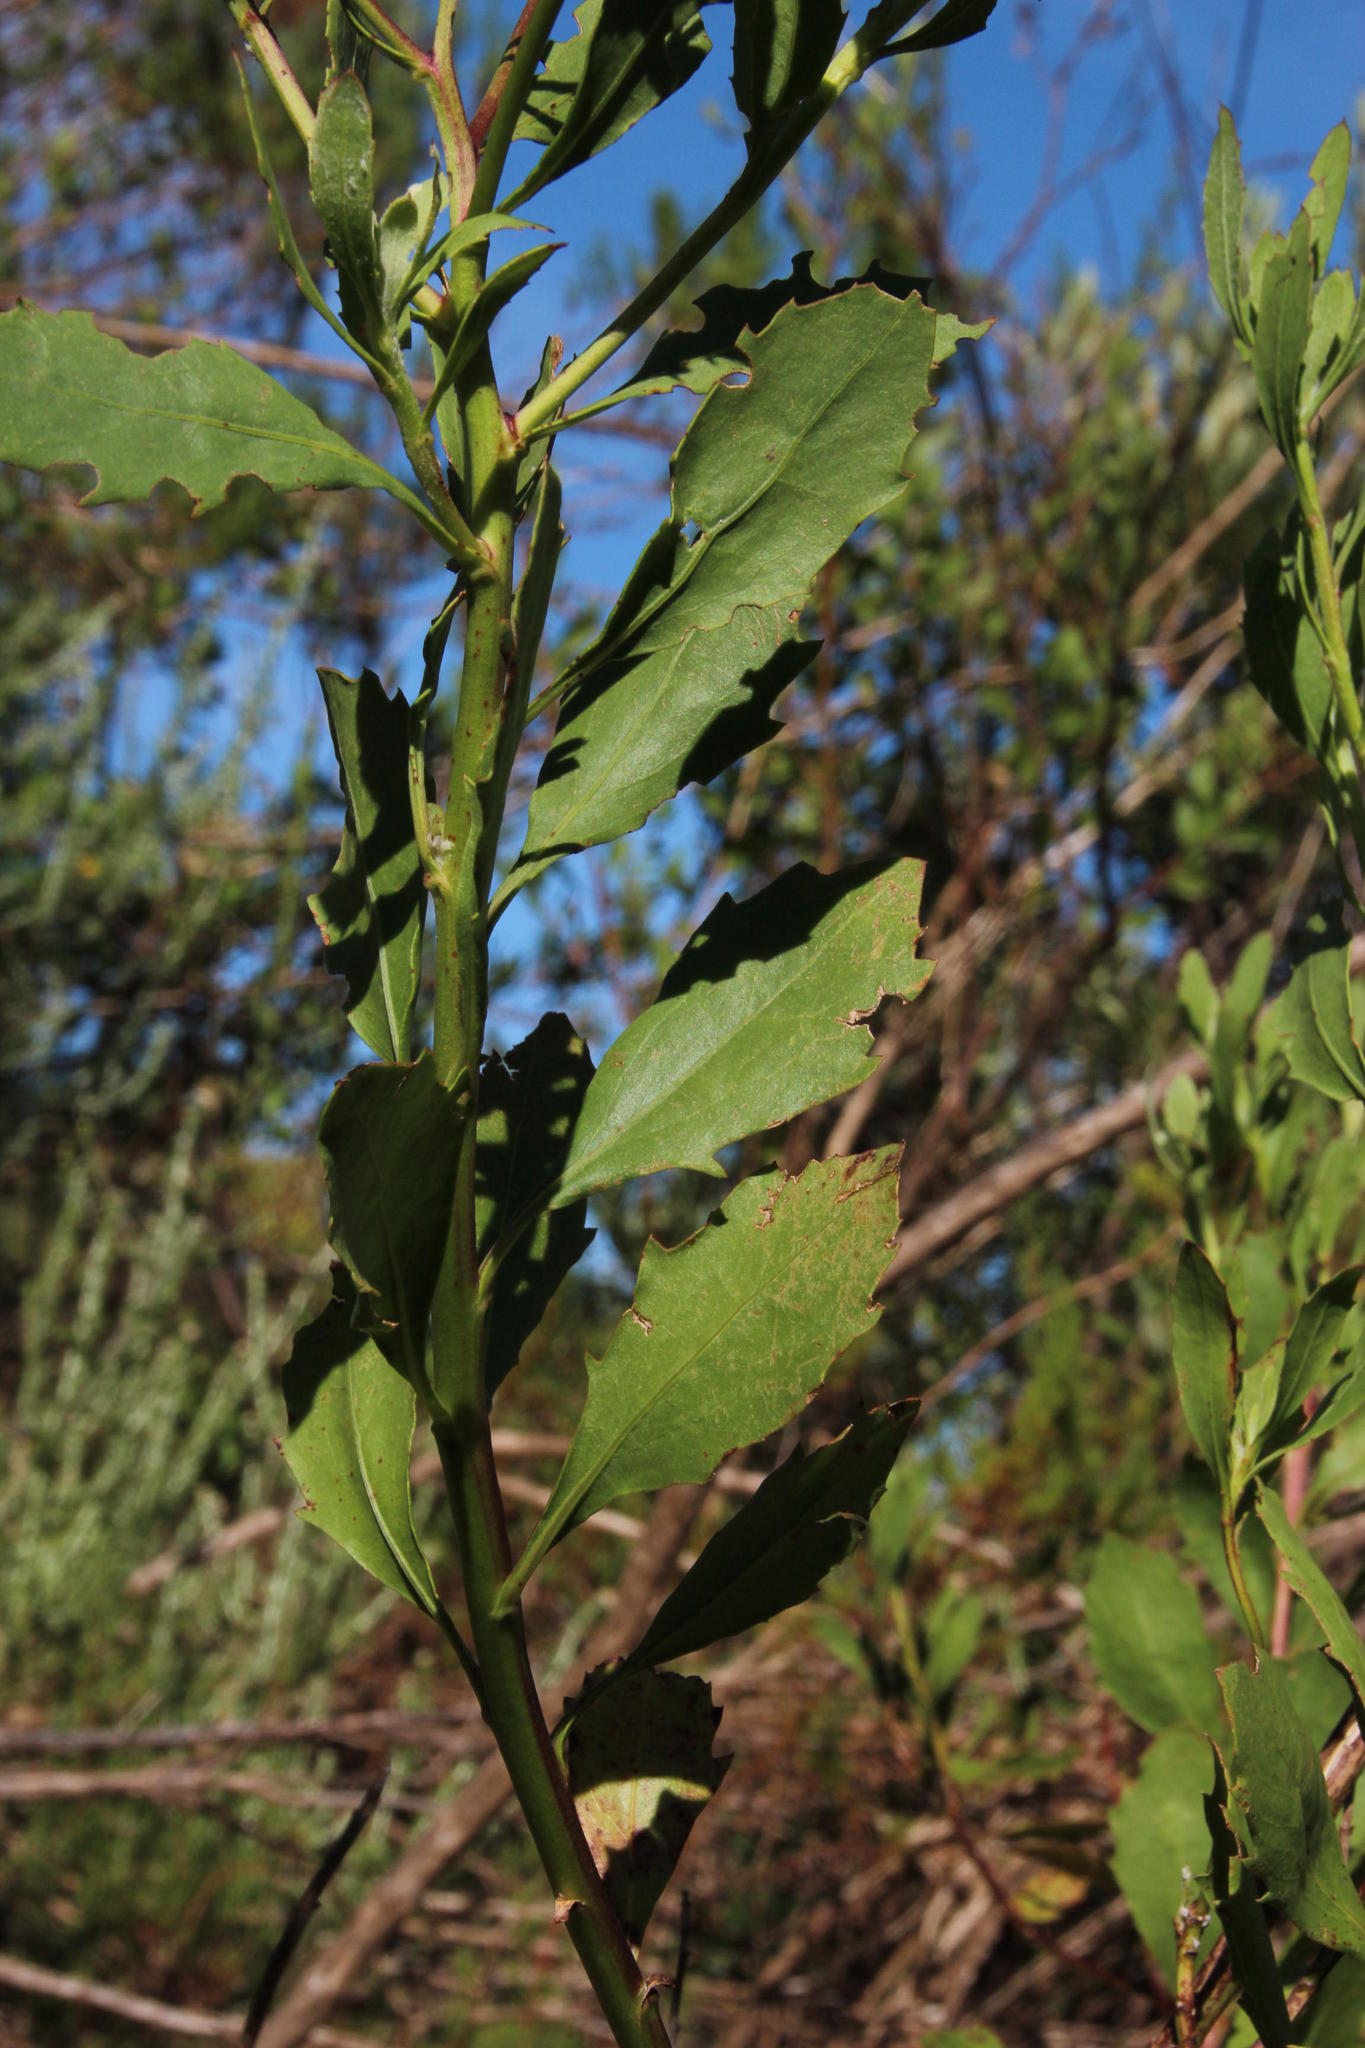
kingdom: Plantae
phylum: Tracheophyta
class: Magnoliopsida
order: Asterales
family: Asteraceae
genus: Osteospermum
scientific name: Osteospermum moniliferum
